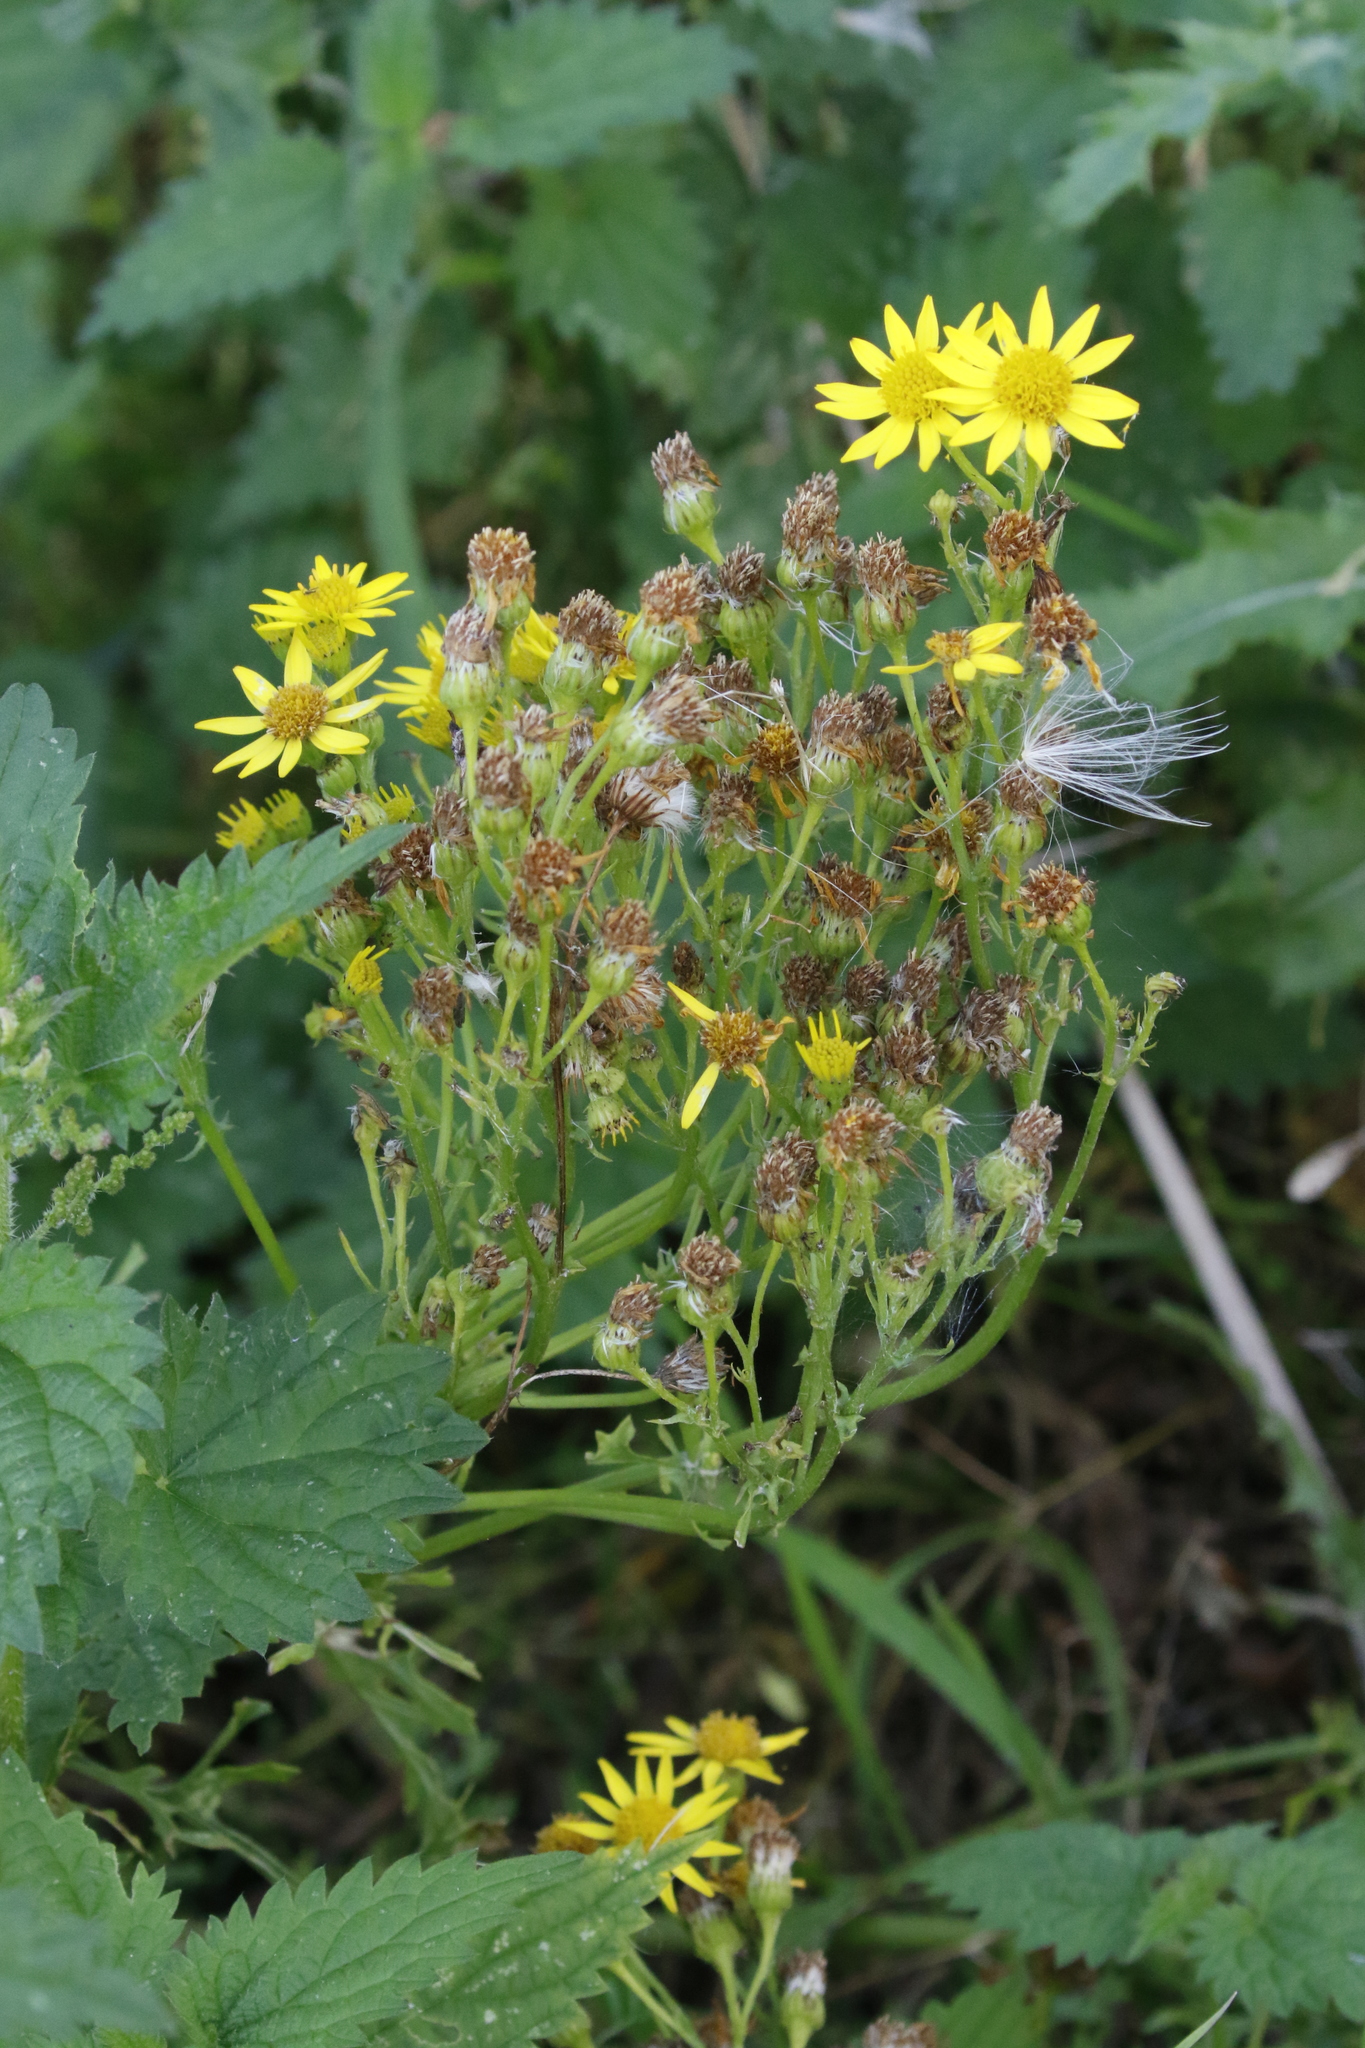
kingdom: Plantae
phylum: Tracheophyta
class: Magnoliopsida
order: Asterales
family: Asteraceae
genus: Jacobaea
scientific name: Jacobaea vulgaris
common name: Stinking willie
